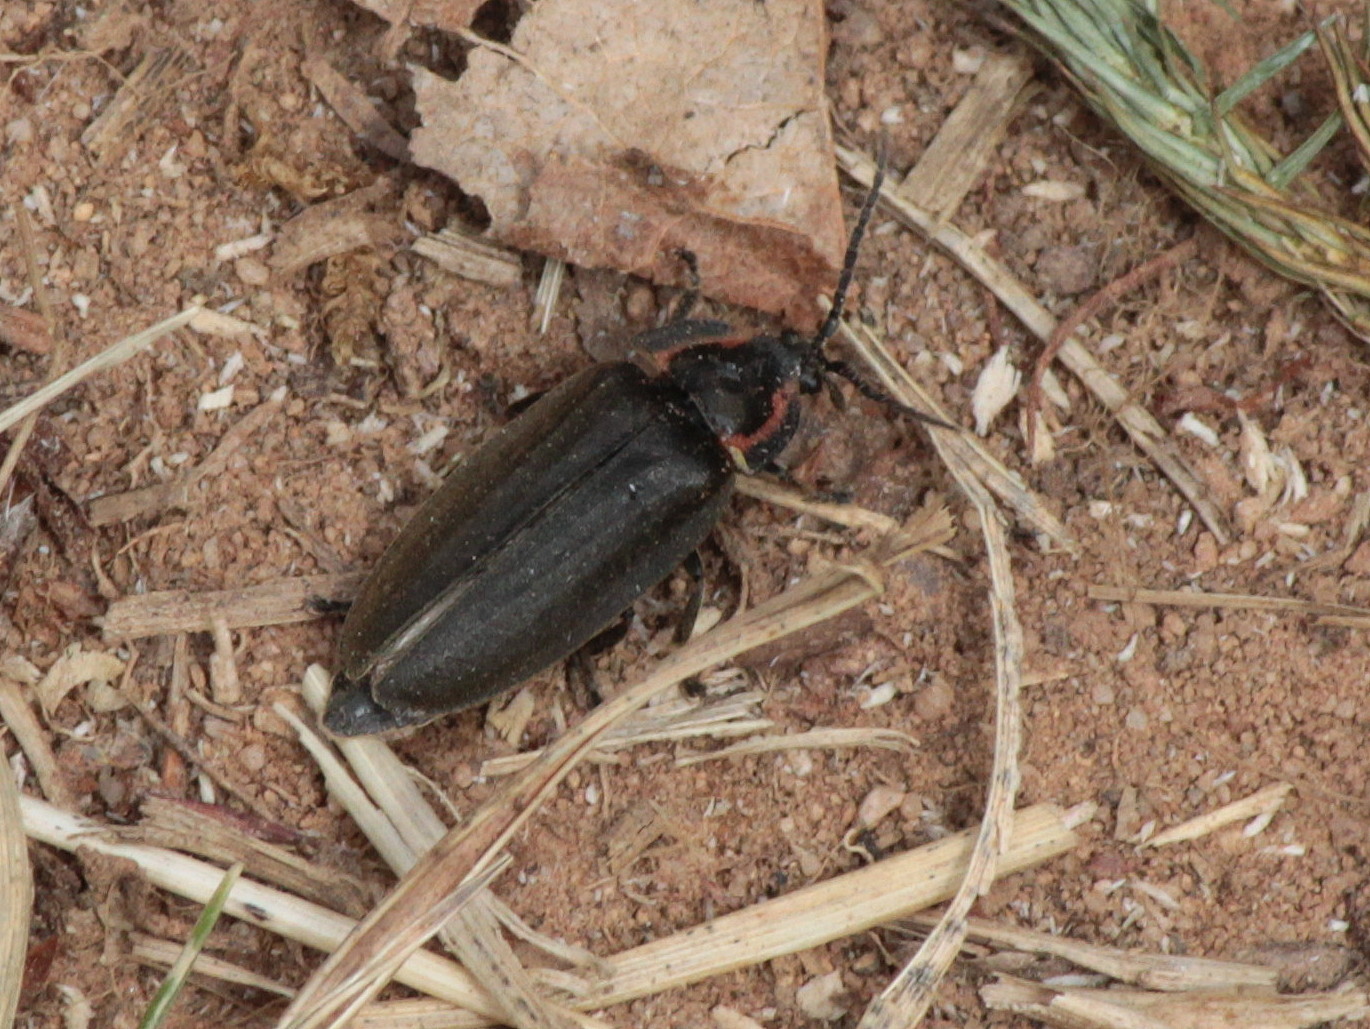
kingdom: Animalia
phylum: Arthropoda
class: Insecta
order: Coleoptera
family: Lampyridae
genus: Photinus
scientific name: Photinus corrusca
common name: Winter firefly
